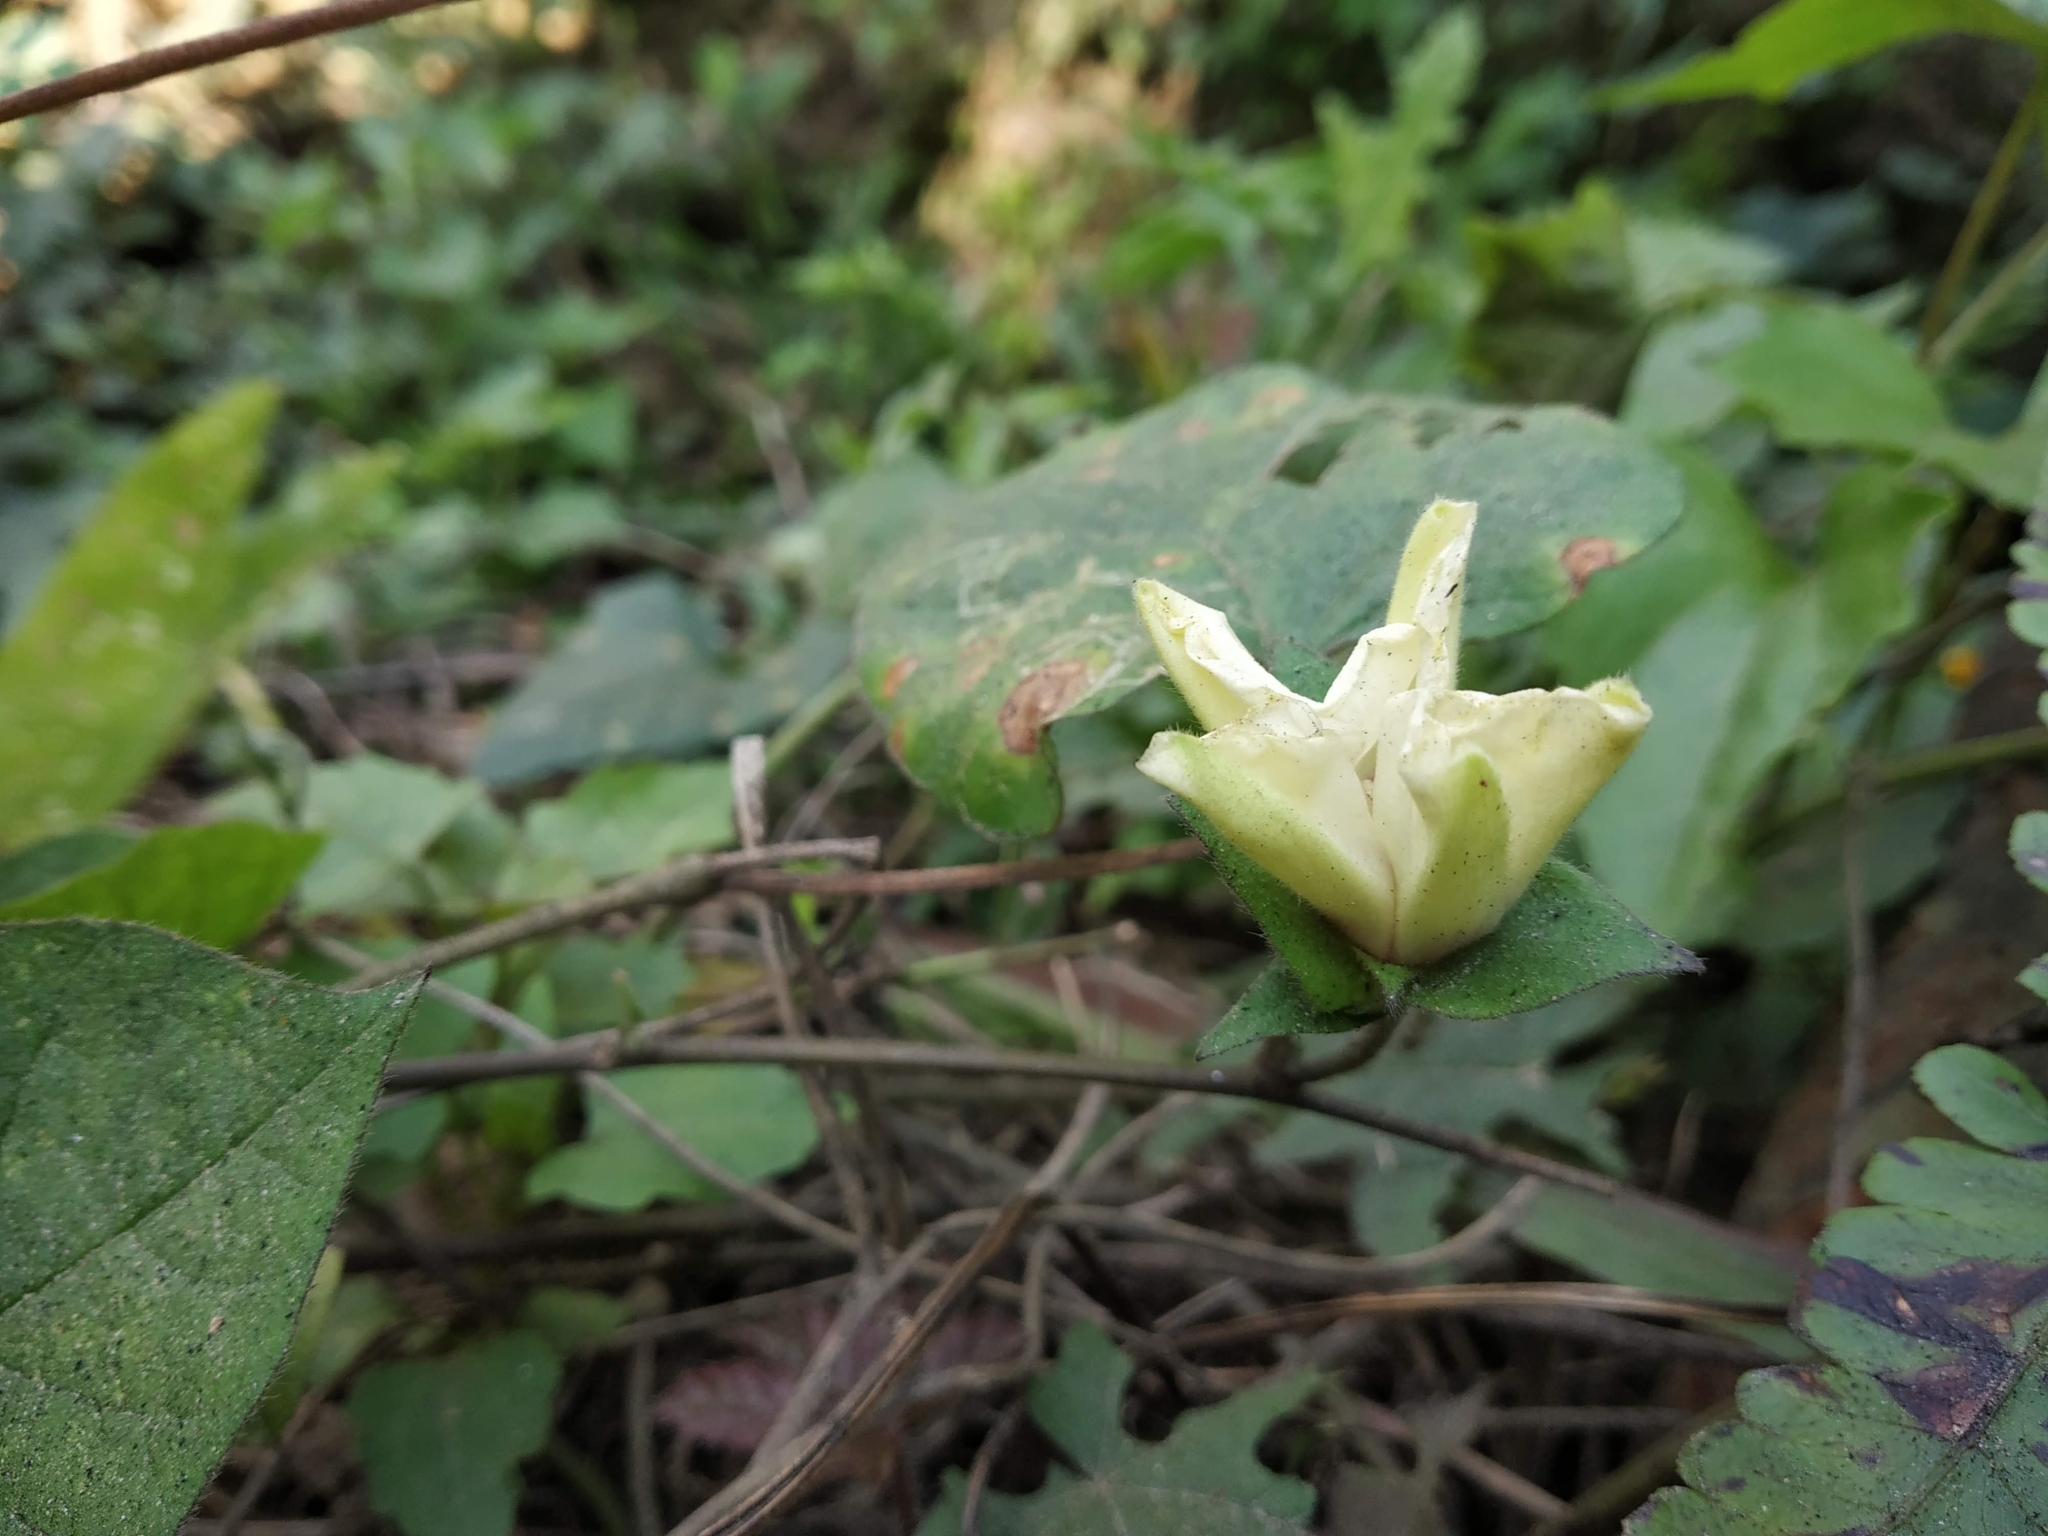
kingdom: Plantae
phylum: Tracheophyta
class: Magnoliopsida
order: Solanales
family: Convolvulaceae
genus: Hewittia
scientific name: Hewittia malabarica
